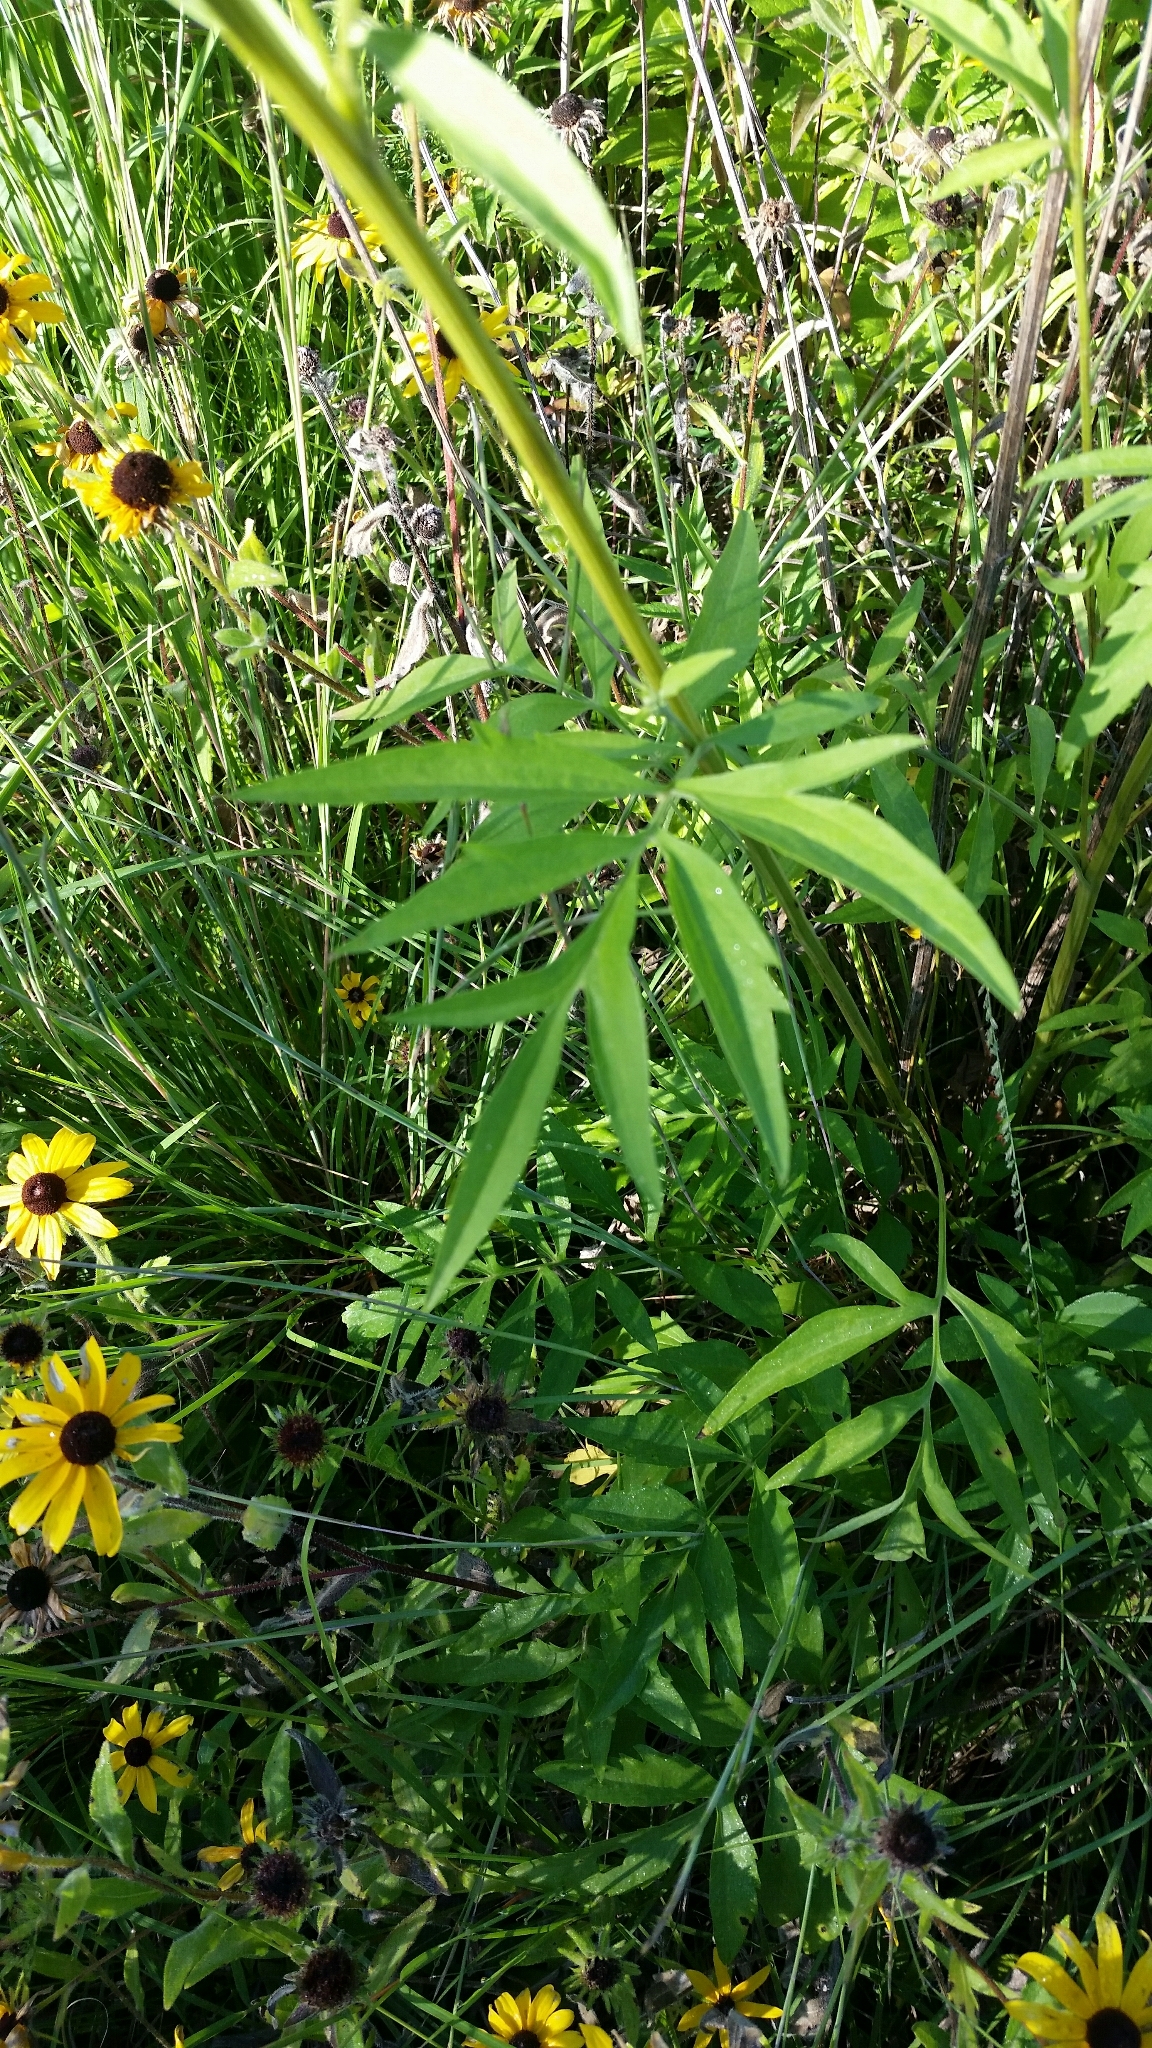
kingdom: Plantae
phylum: Tracheophyta
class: Magnoliopsida
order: Asterales
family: Asteraceae
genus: Ratibida
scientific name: Ratibida pinnata
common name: Drooping prairie-coneflower
